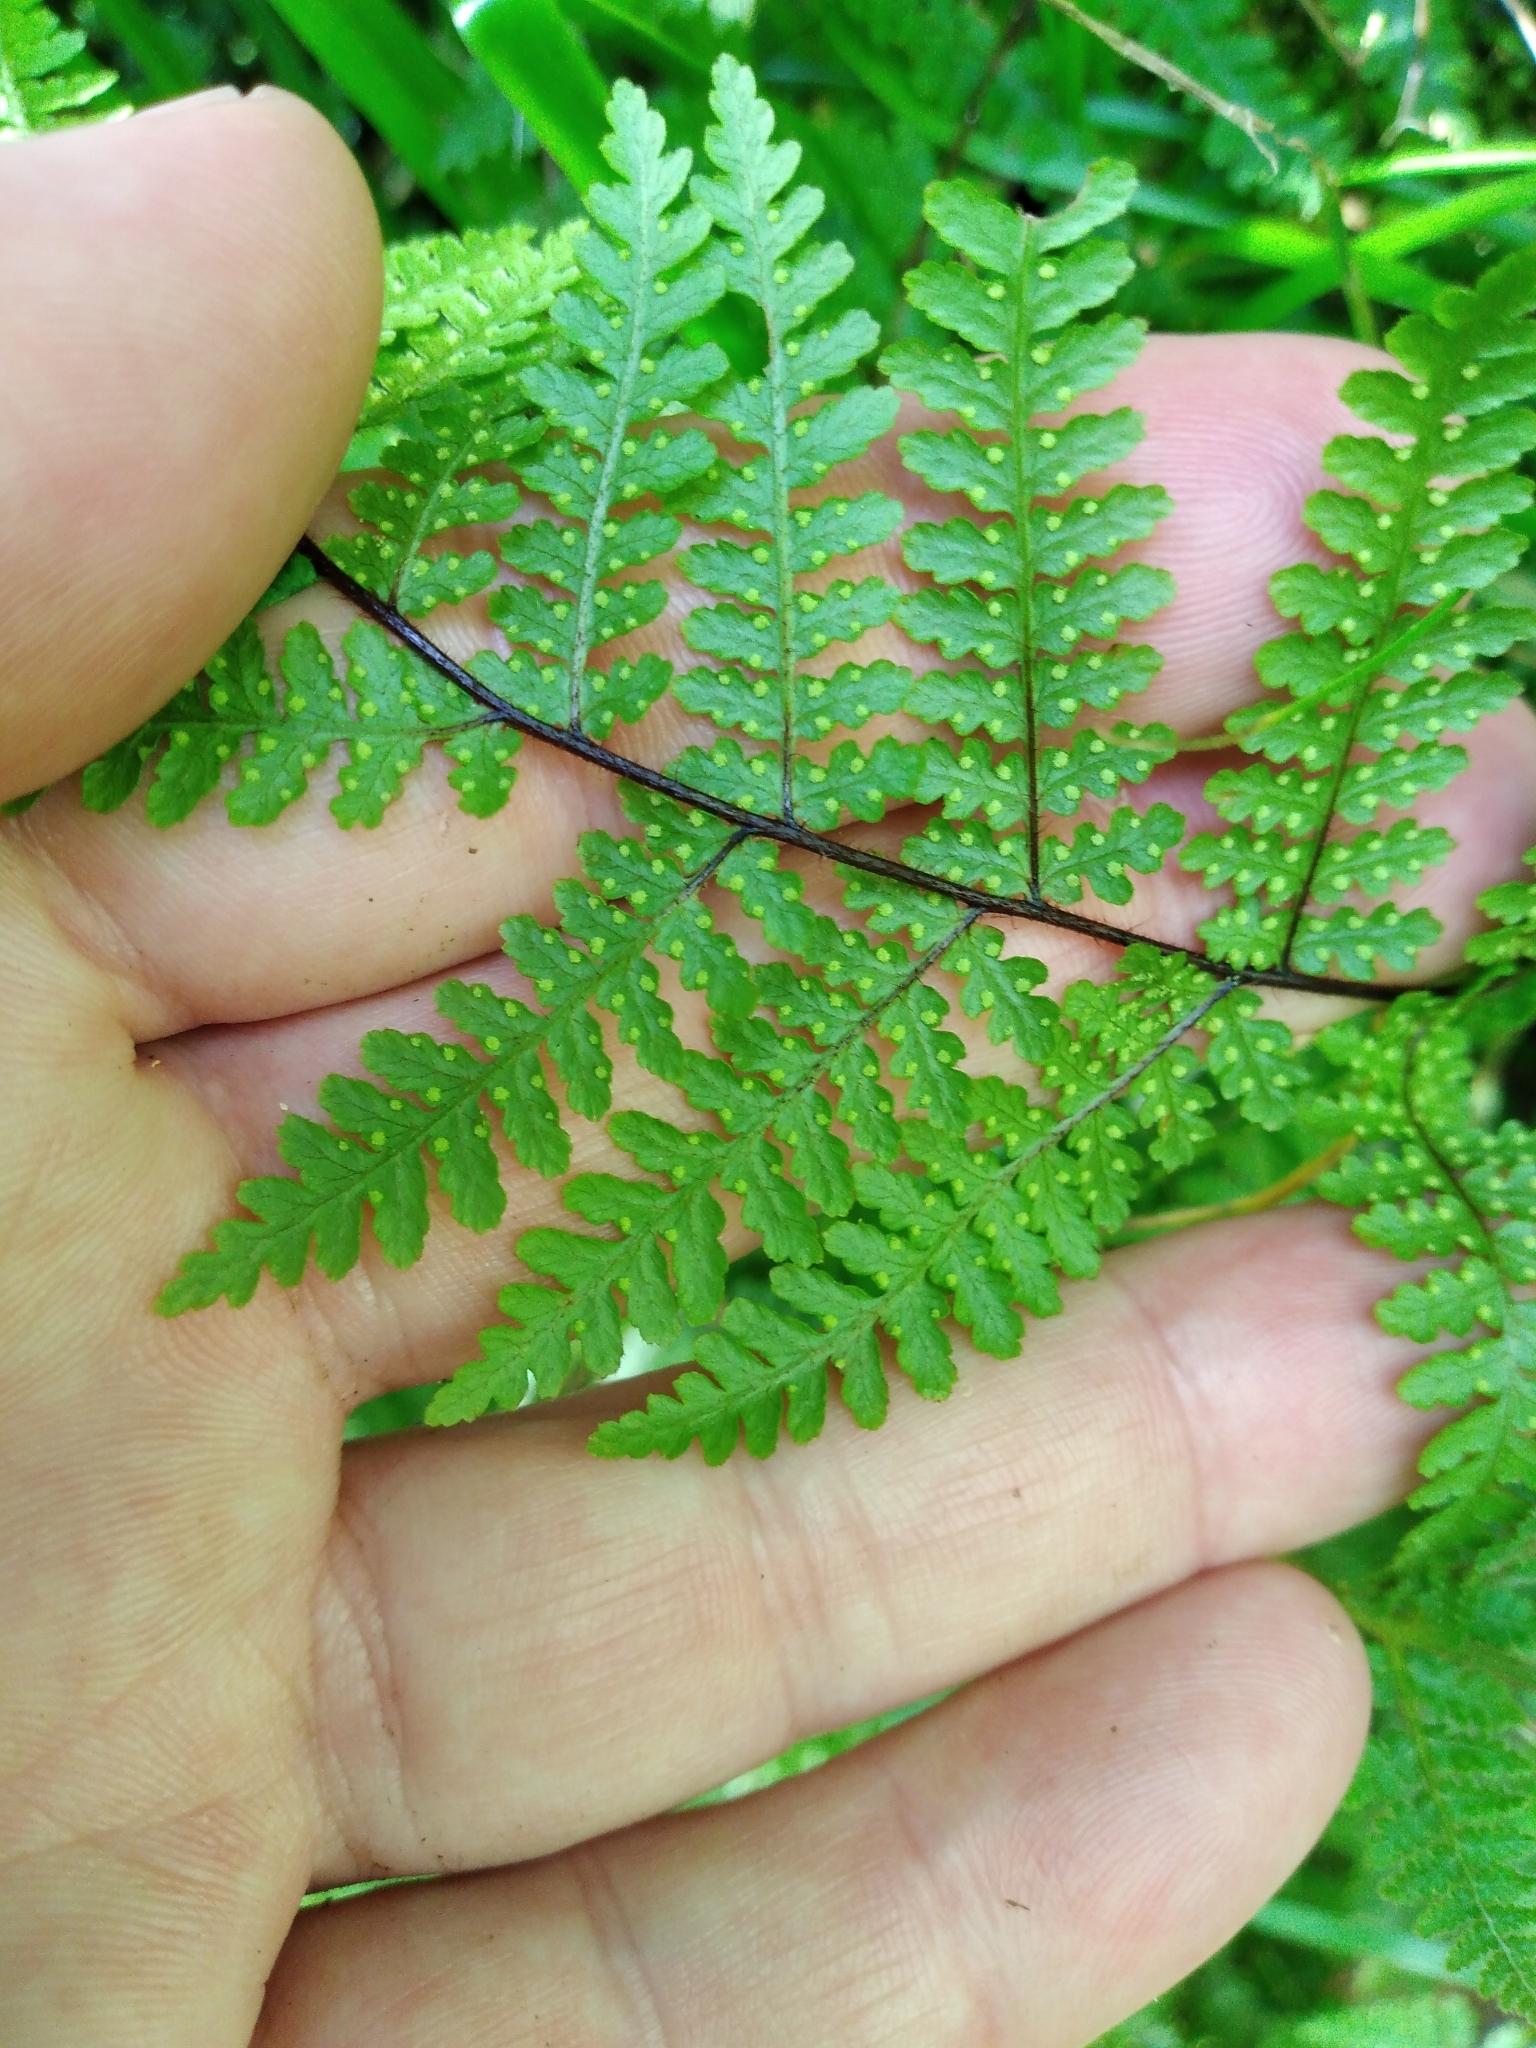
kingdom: Plantae
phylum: Tracheophyta
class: Polypodiopsida
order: Polypodiales
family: Dennstaedtiaceae
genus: Hypolepis
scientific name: Hypolepis rugosula
